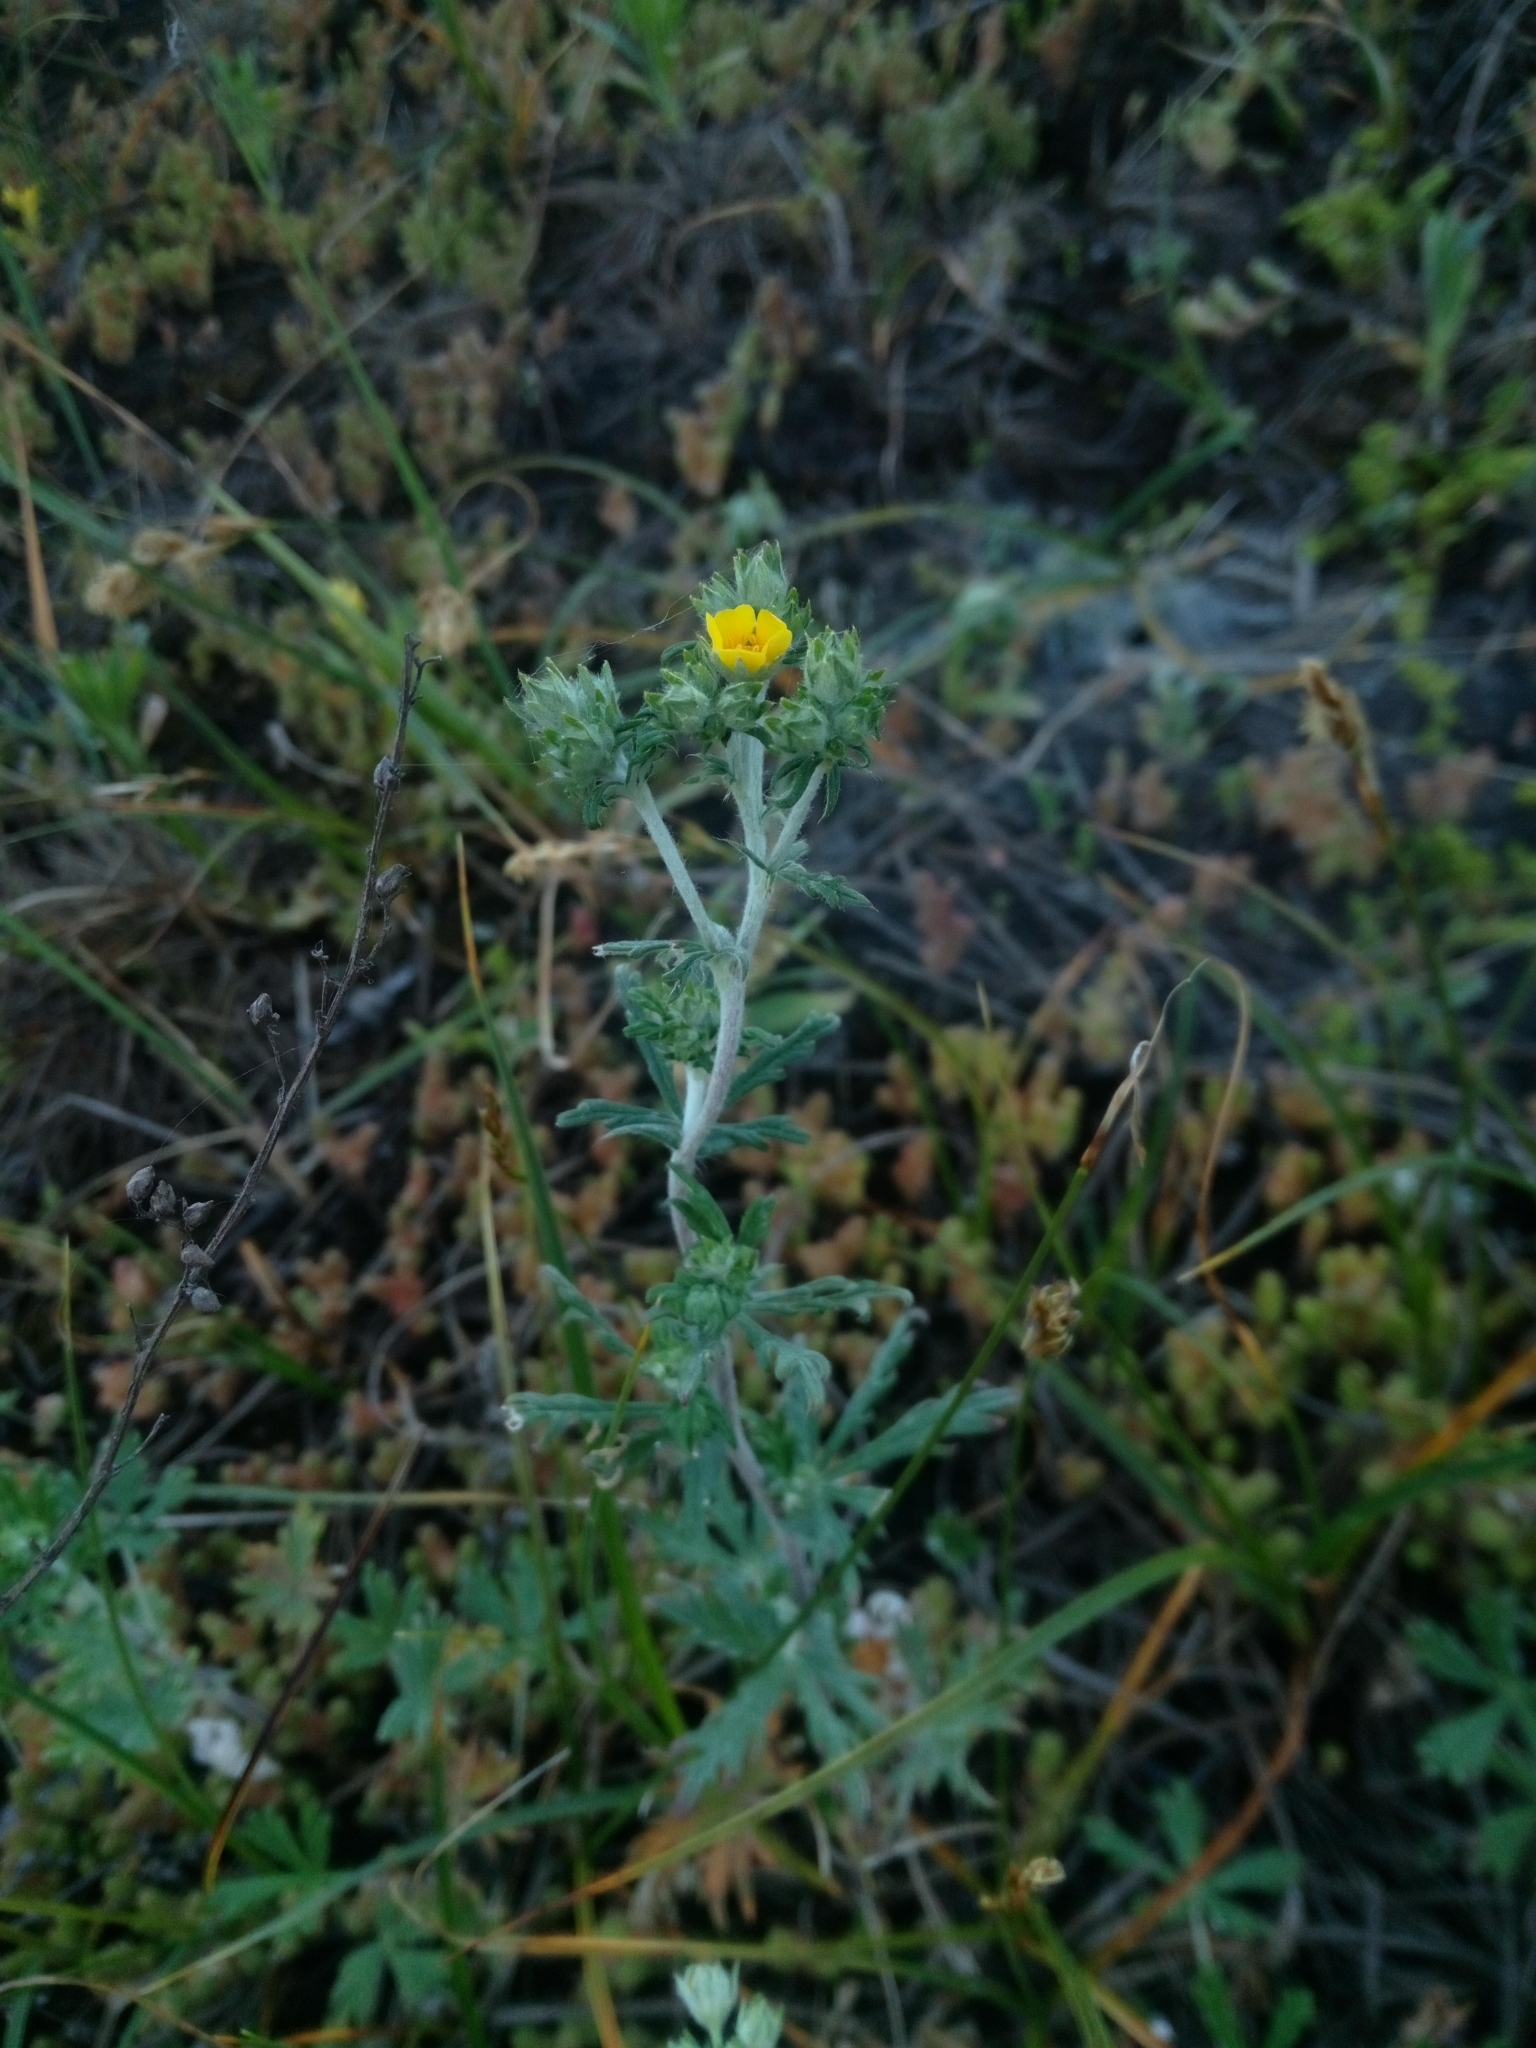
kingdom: Plantae
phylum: Tracheophyta
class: Magnoliopsida
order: Rosales
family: Rosaceae
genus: Potentilla
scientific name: Potentilla argentea
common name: Hoary cinquefoil
